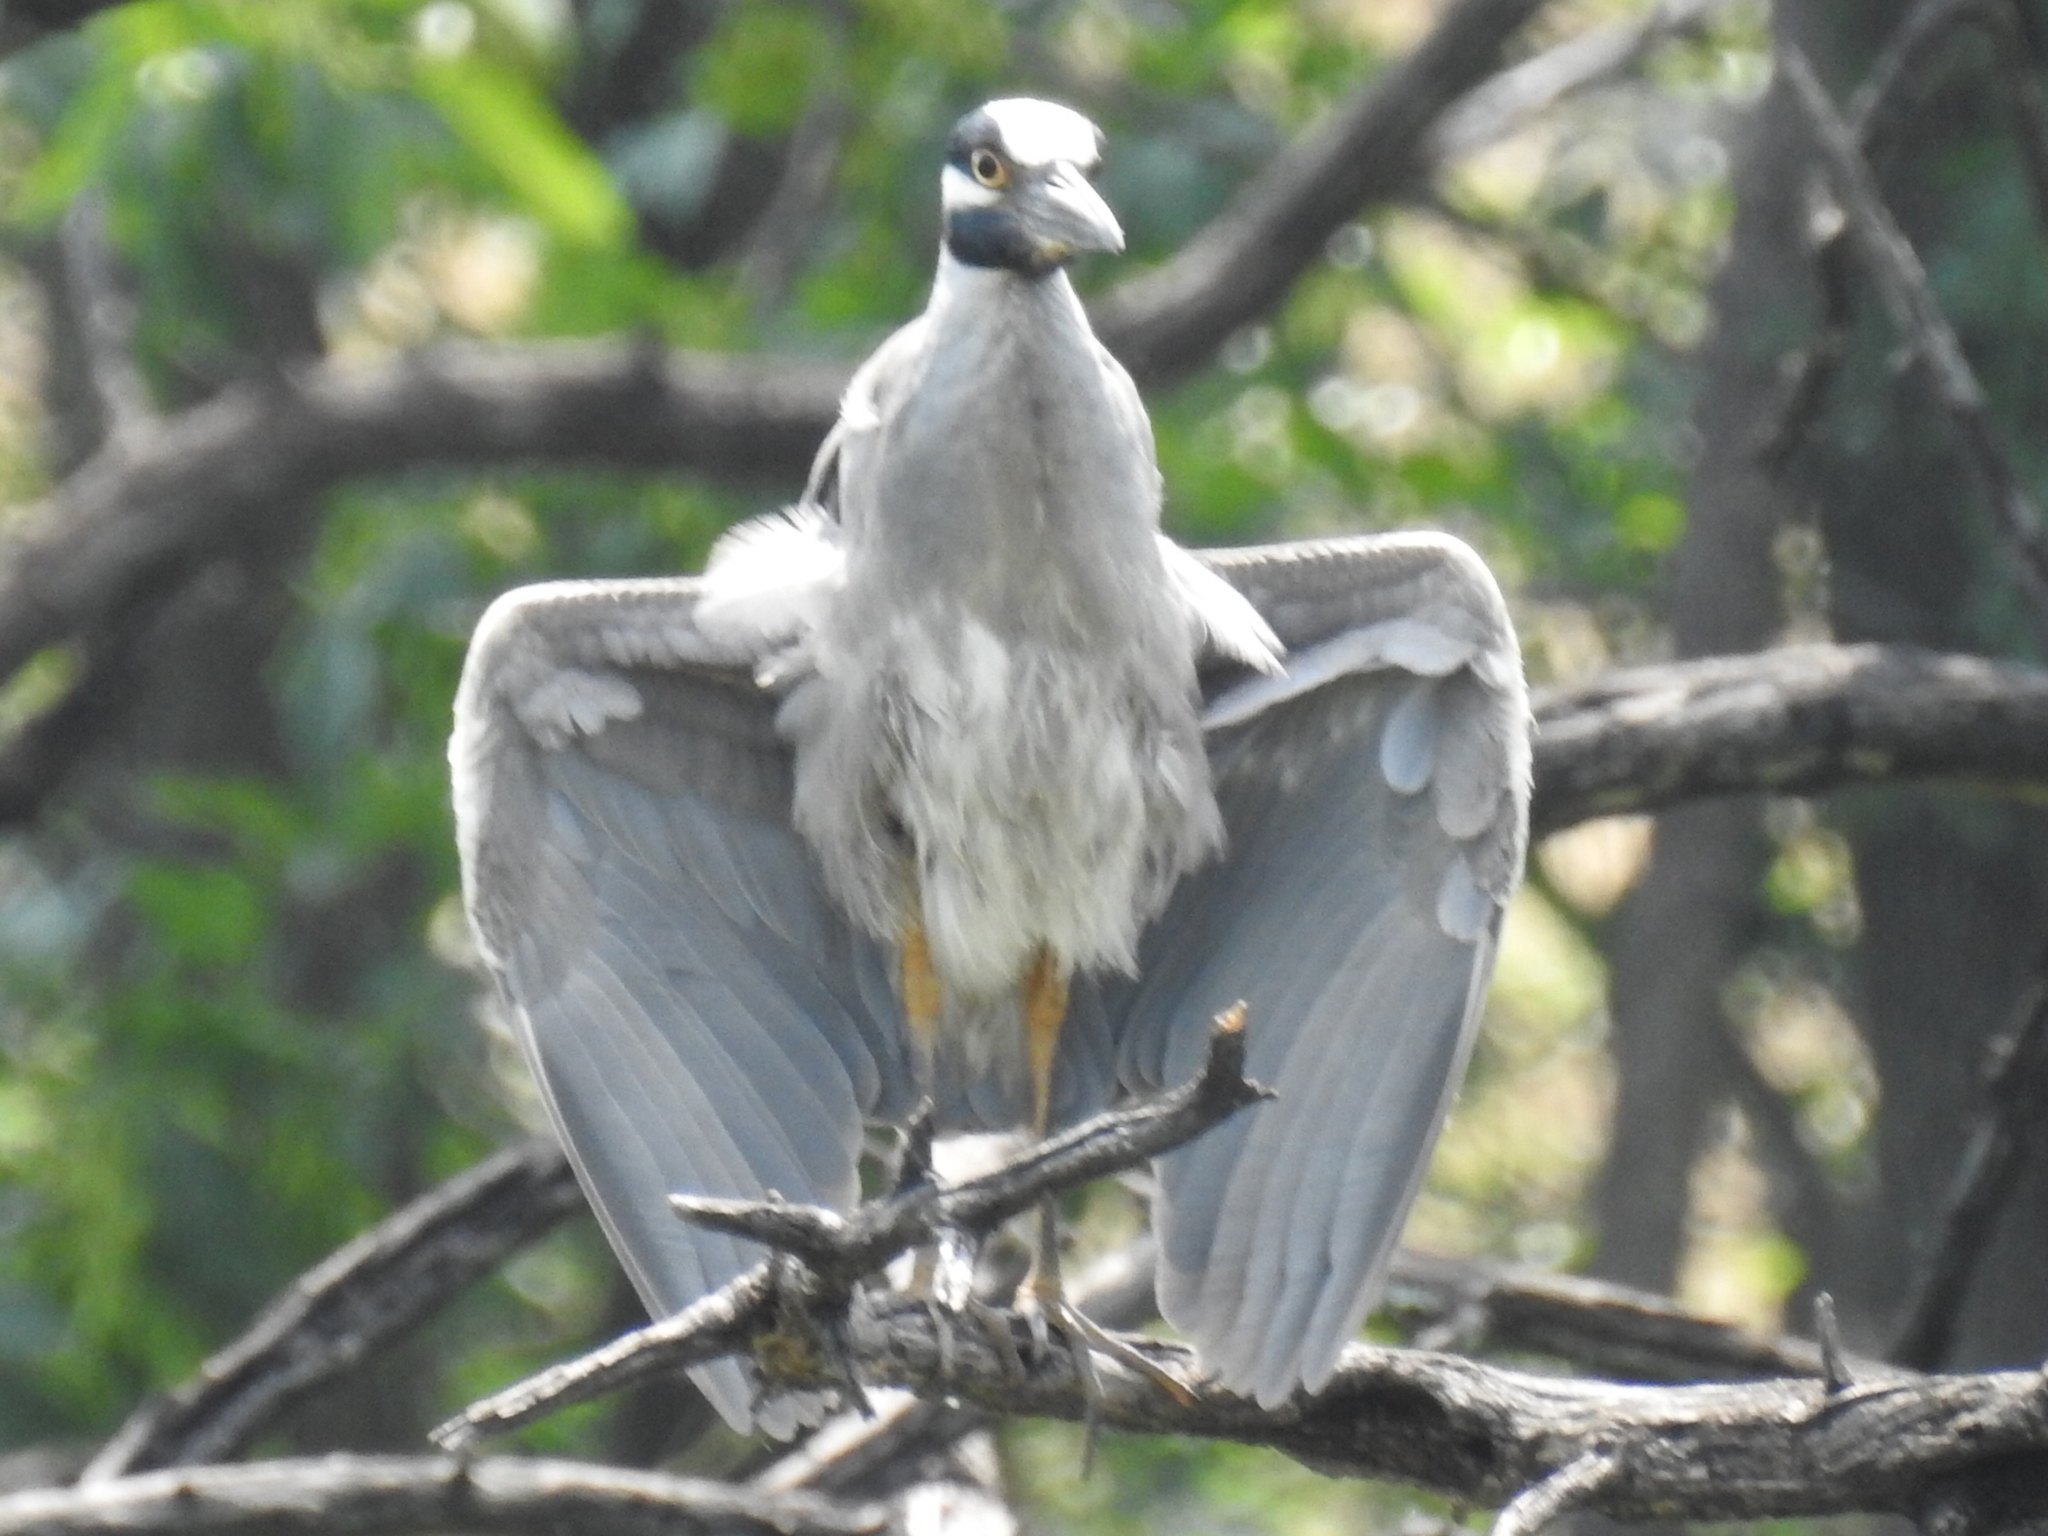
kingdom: Animalia
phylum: Chordata
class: Aves
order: Pelecaniformes
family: Ardeidae
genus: Nyctanassa
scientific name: Nyctanassa violacea
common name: Yellow-crowned night heron
